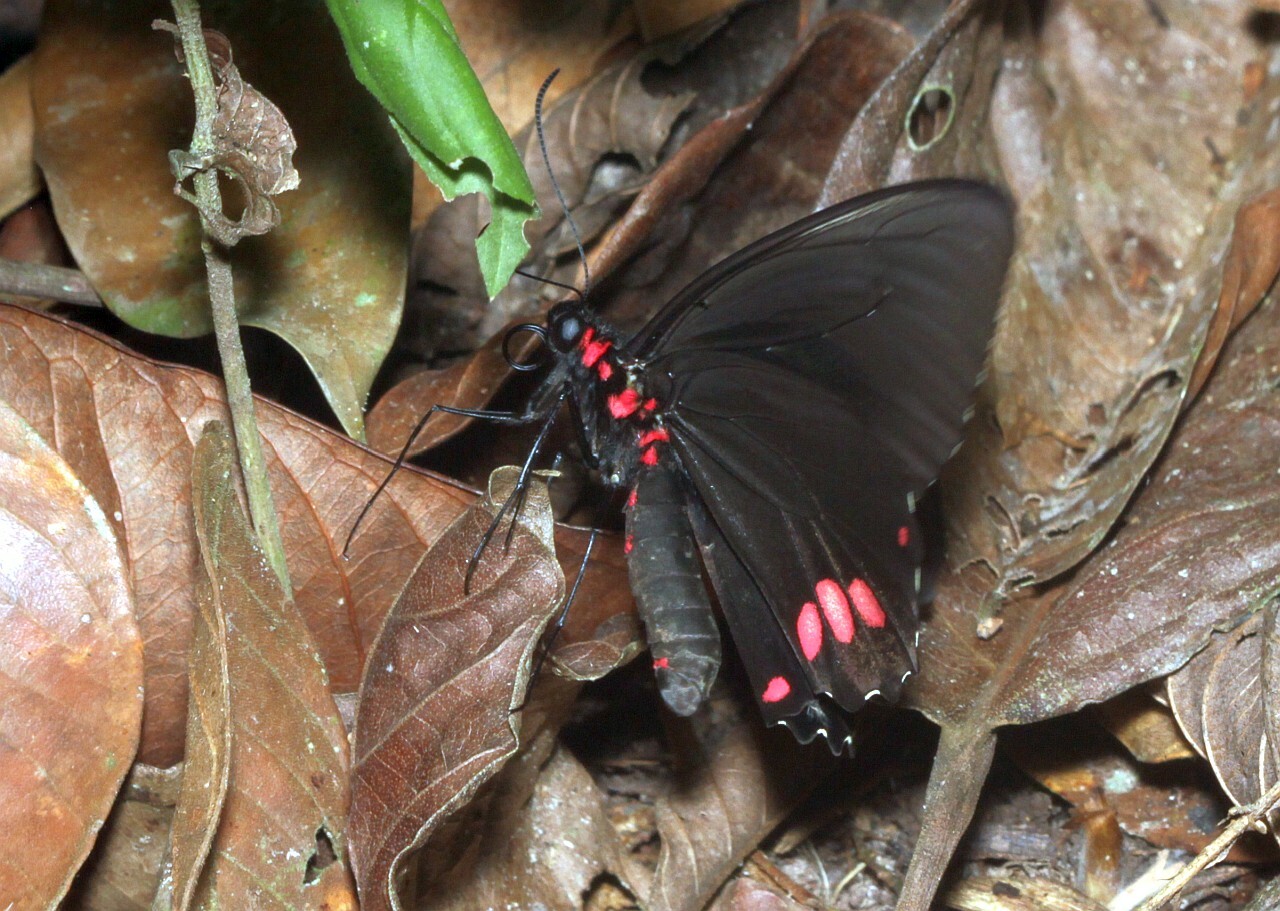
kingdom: Animalia
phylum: Arthropoda
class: Insecta
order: Lepidoptera
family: Papilionidae
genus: Parides
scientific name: Parides sesostris
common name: Southern cattle heart
